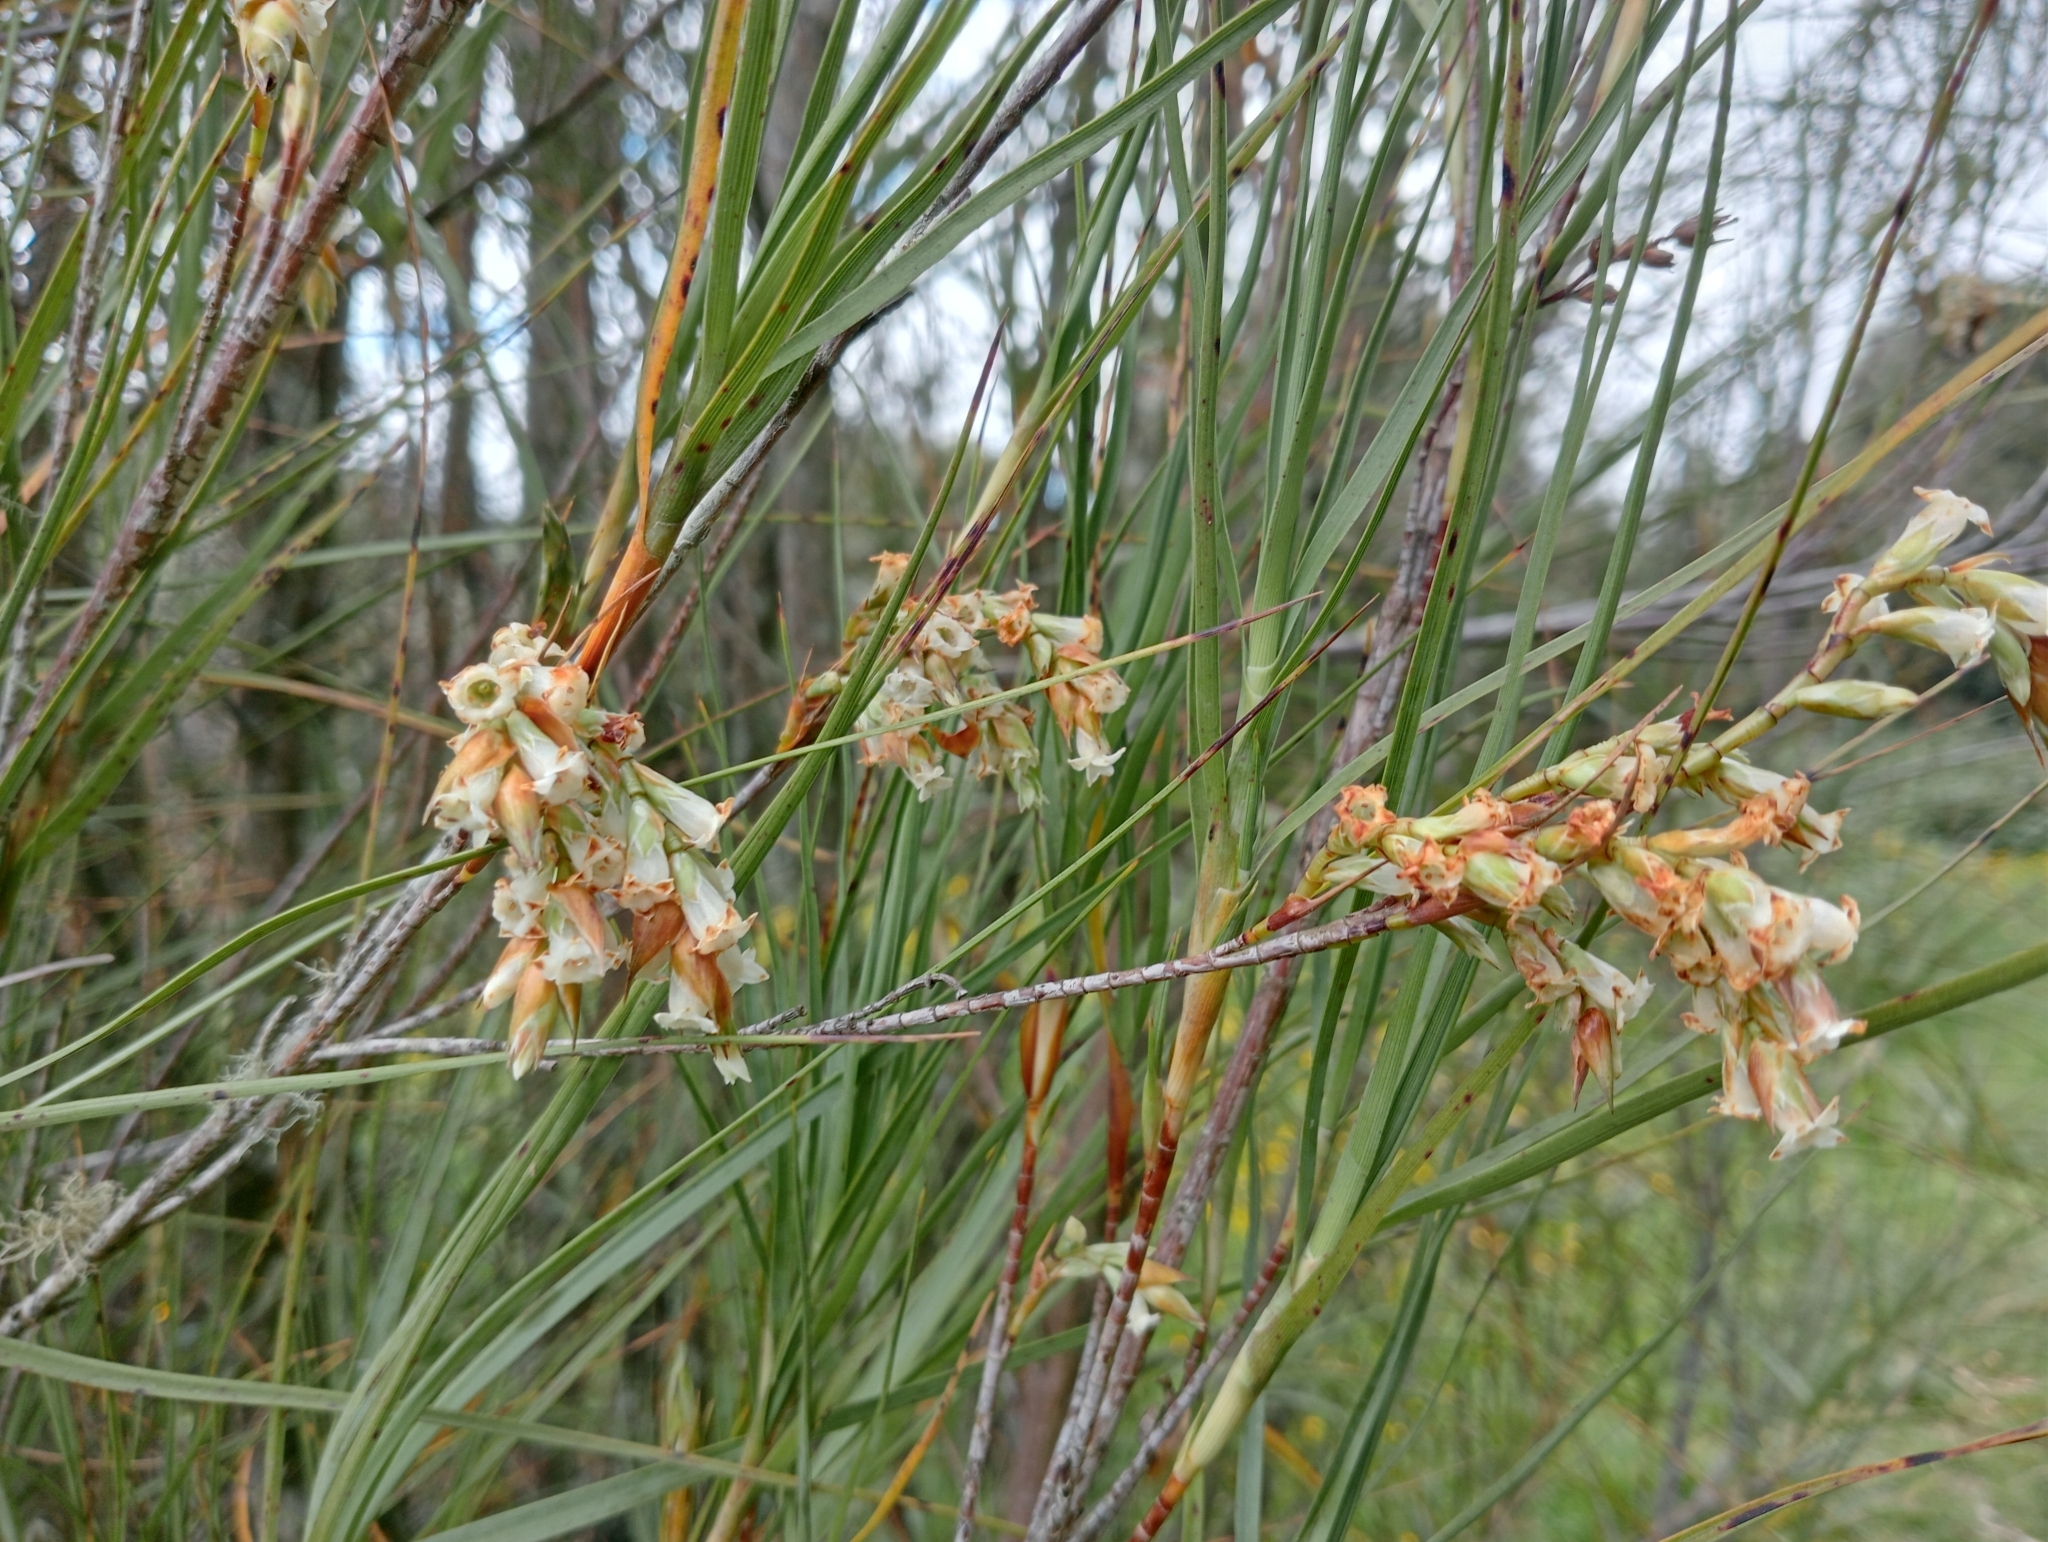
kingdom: Plantae
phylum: Tracheophyta
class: Magnoliopsida
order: Ericales
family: Ericaceae
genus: Dracophyllum
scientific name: Dracophyllum longifolium
